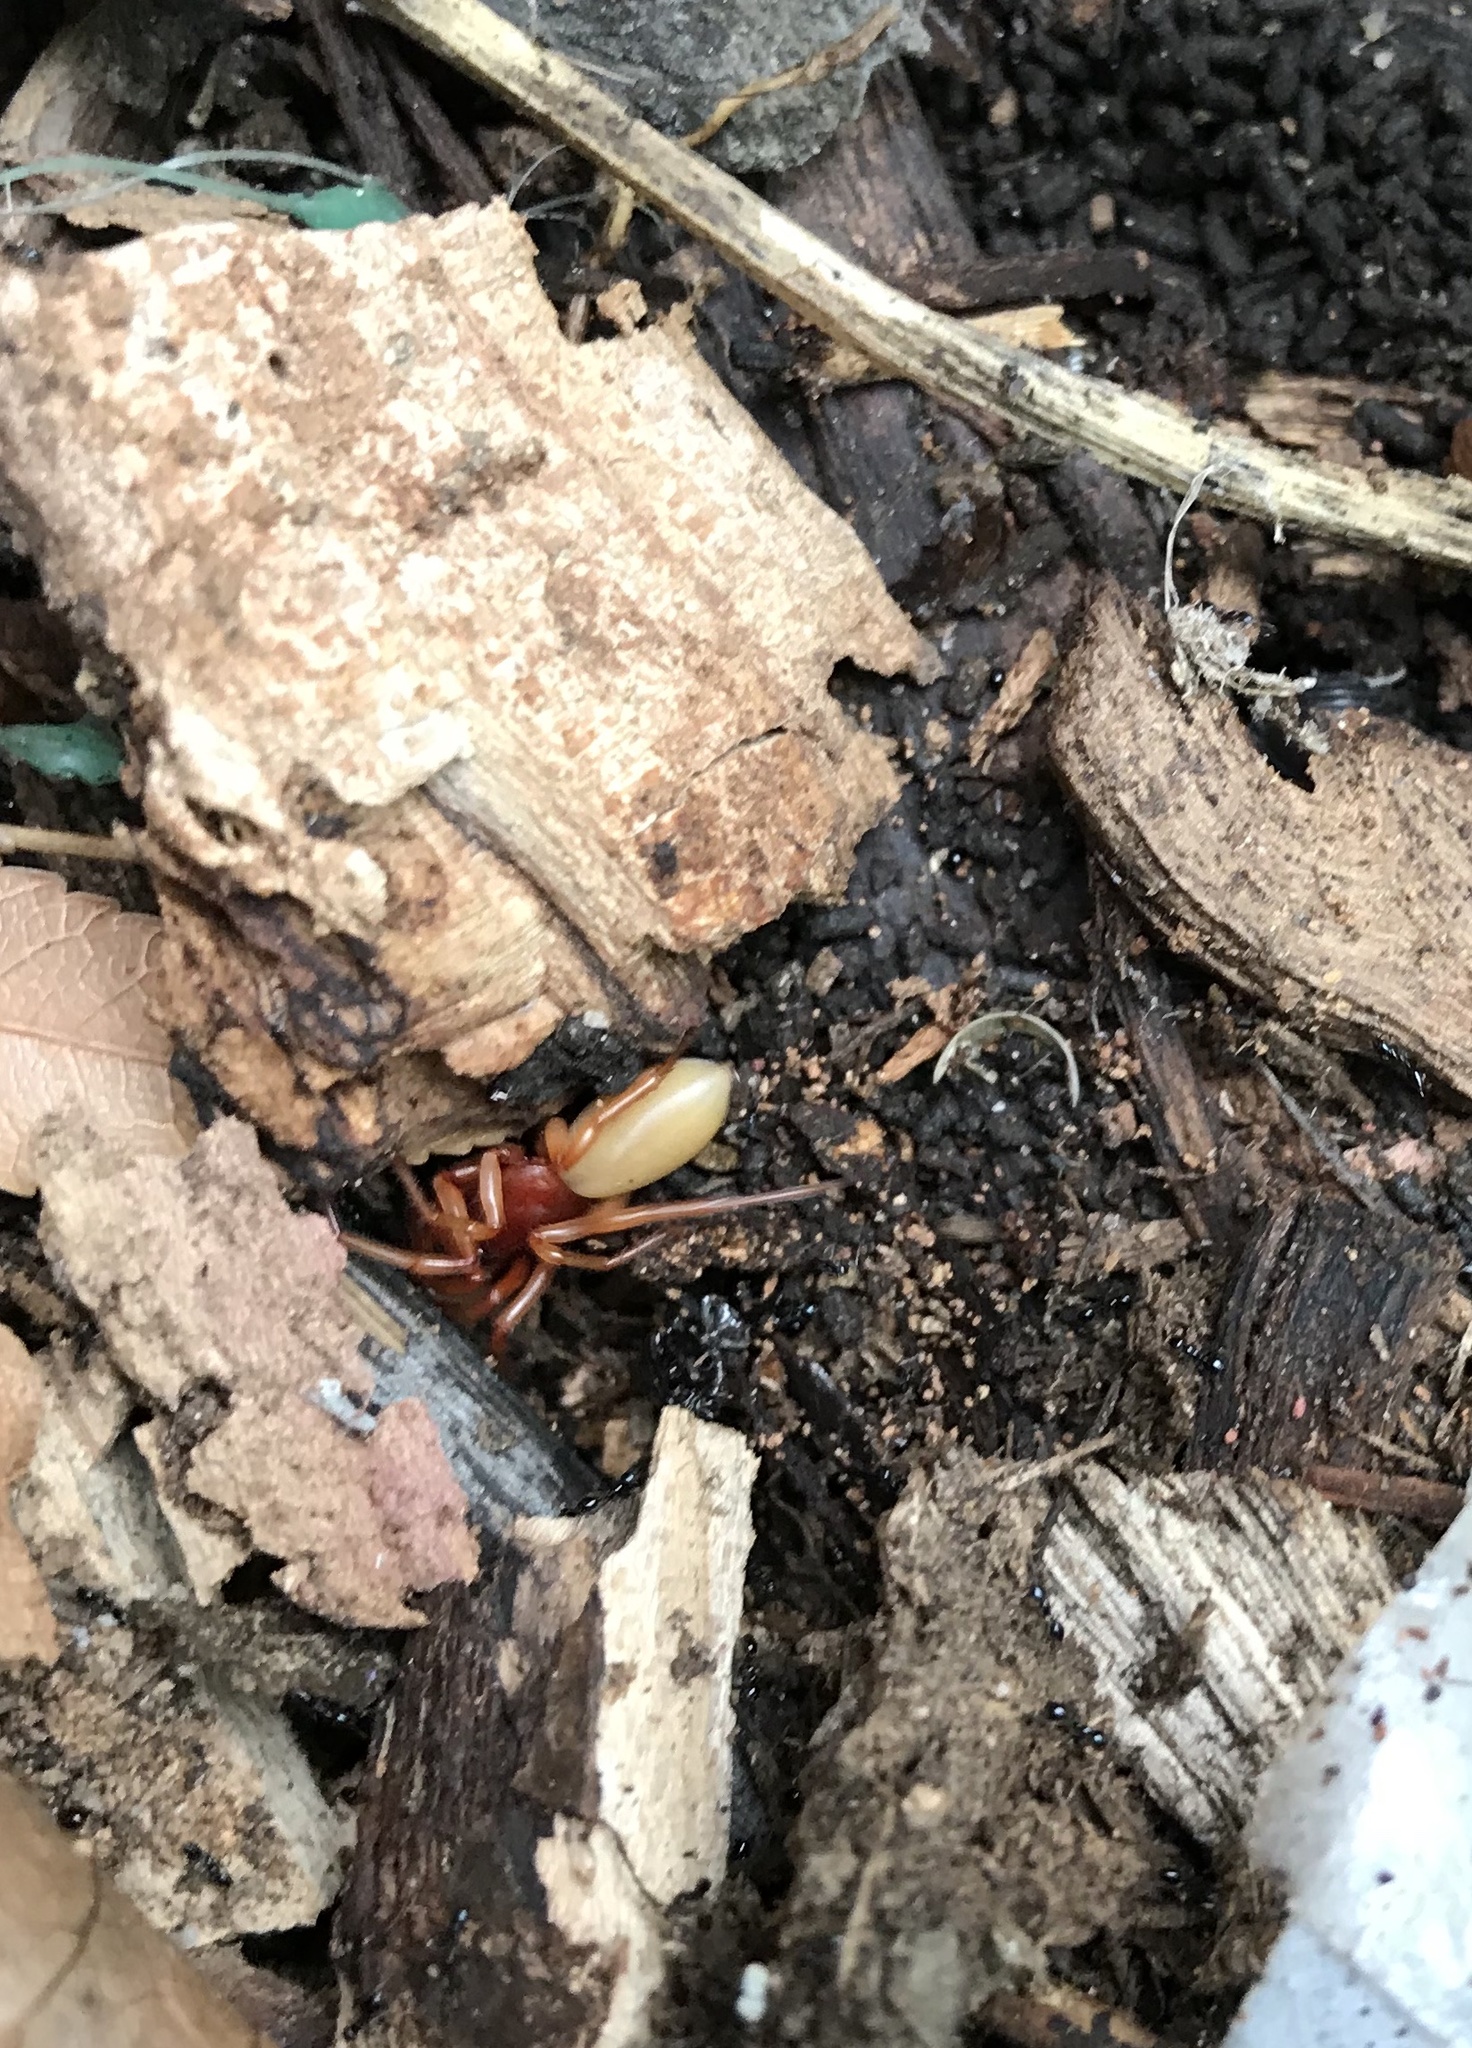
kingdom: Animalia
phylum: Arthropoda
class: Arachnida
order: Araneae
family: Dysderidae
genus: Dysdera
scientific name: Dysdera crocata
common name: Woodlouse spider
